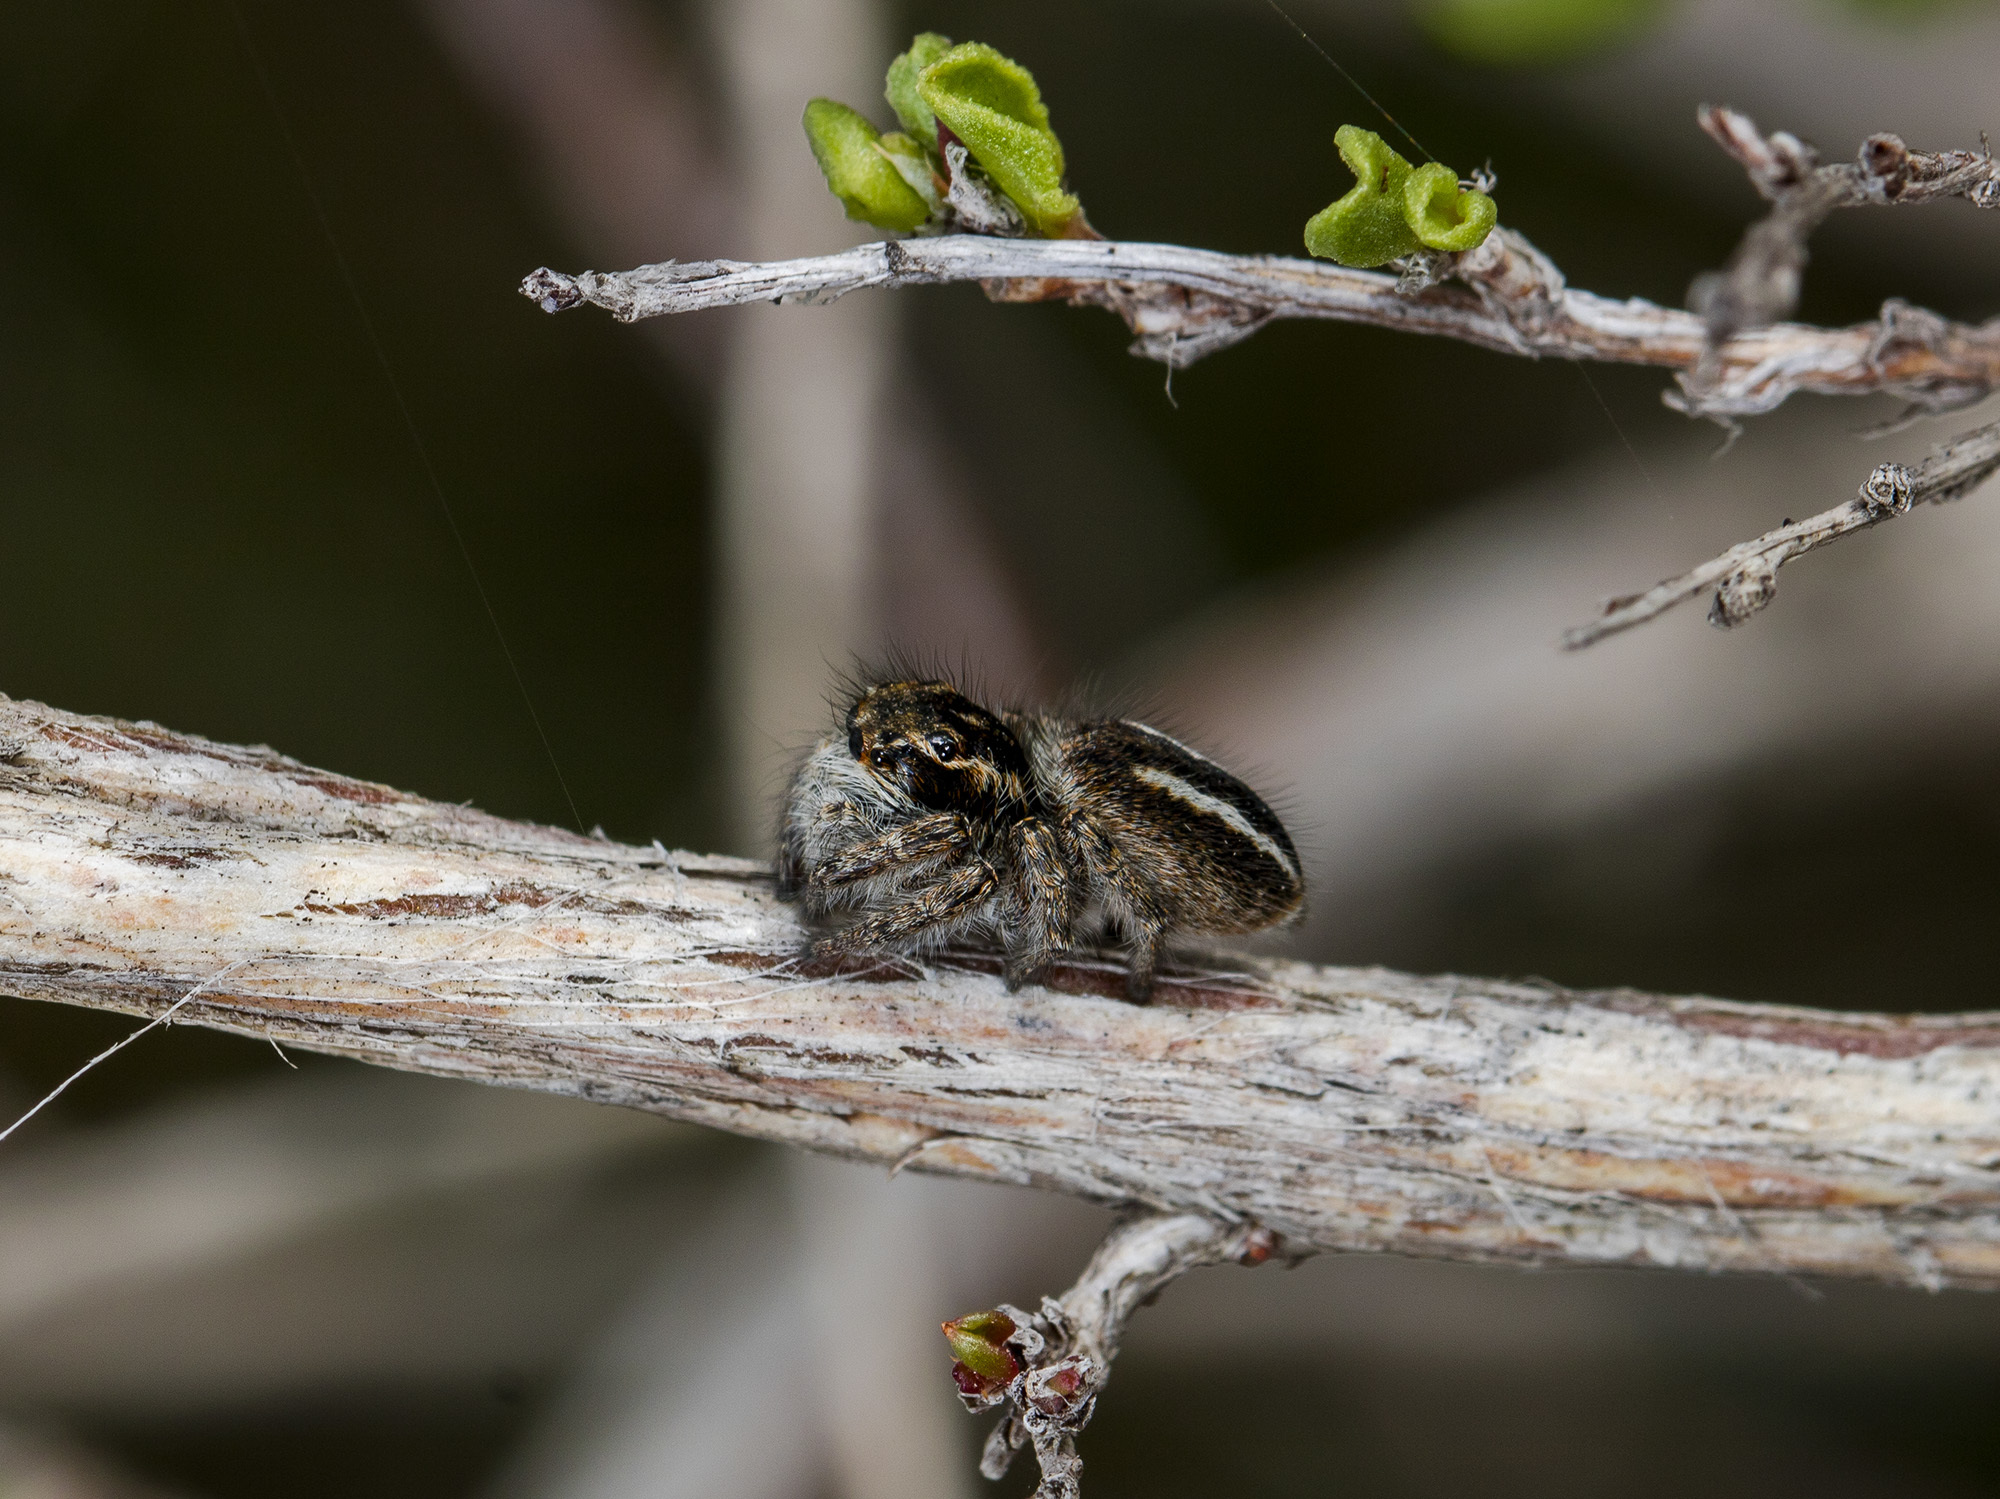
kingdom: Animalia
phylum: Arthropoda
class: Arachnida
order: Araneae
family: Salticidae
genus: Philaeus
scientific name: Philaeus chrysops
